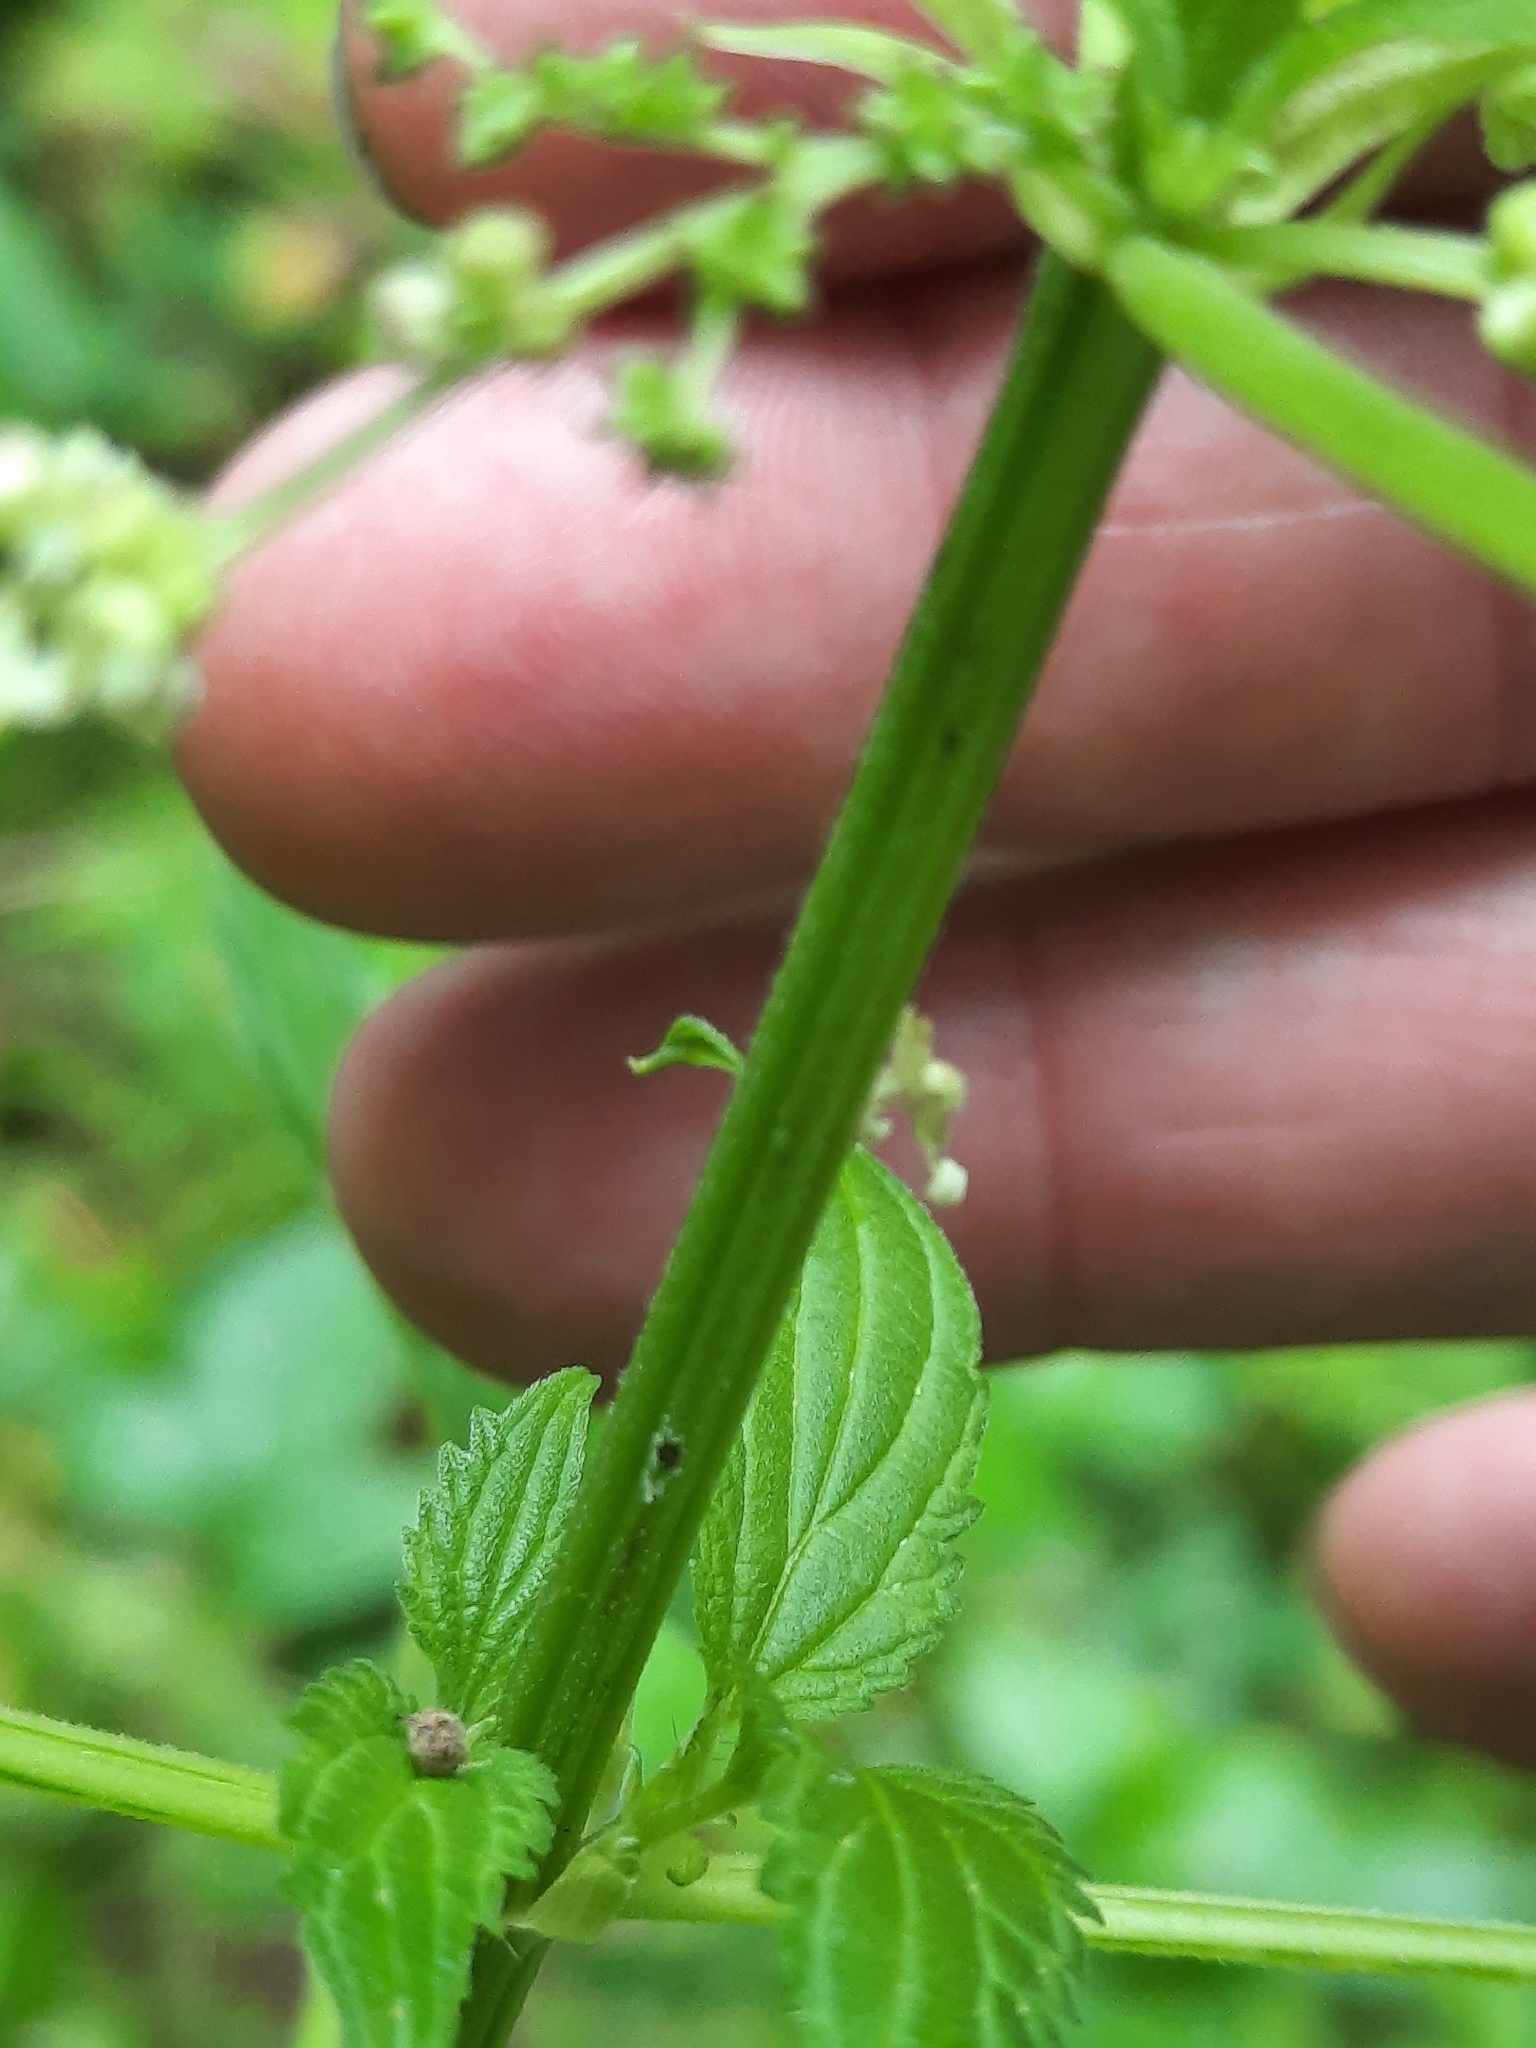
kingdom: Plantae
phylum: Tracheophyta
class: Magnoliopsida
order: Rosales
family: Urticaceae
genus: Urtica
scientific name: Urtica gracilis
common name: Slender stinging nettle
